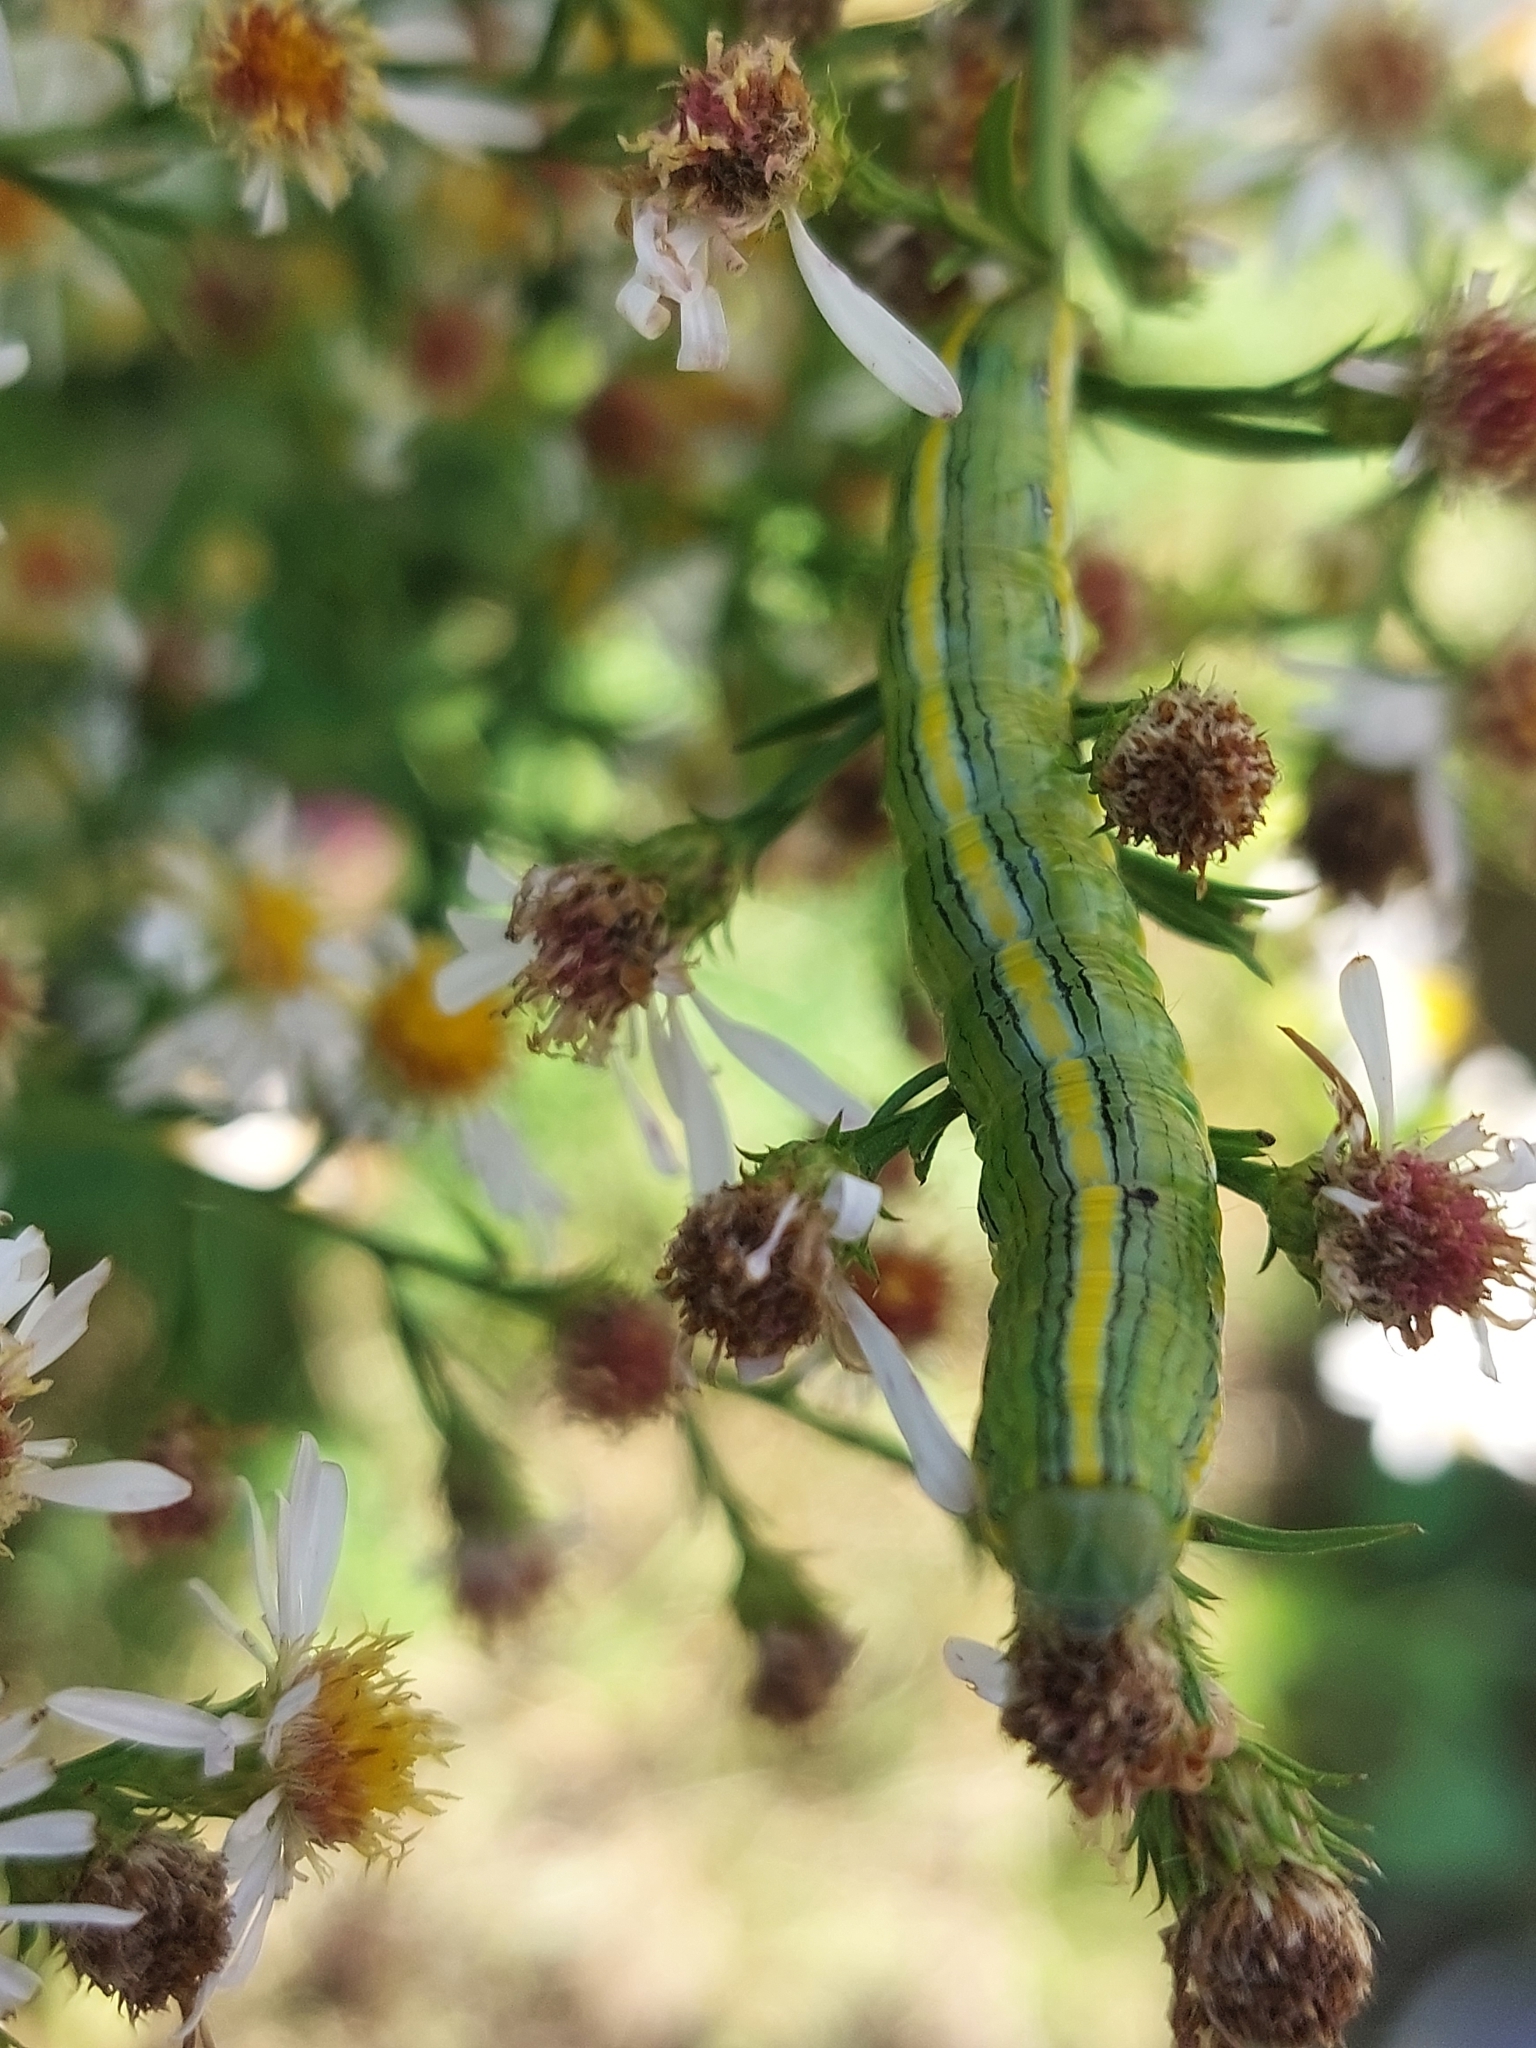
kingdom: Animalia
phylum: Arthropoda
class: Insecta
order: Lepidoptera
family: Noctuidae
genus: Cucullia
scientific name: Cucullia asteroides
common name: Asteroid moth
